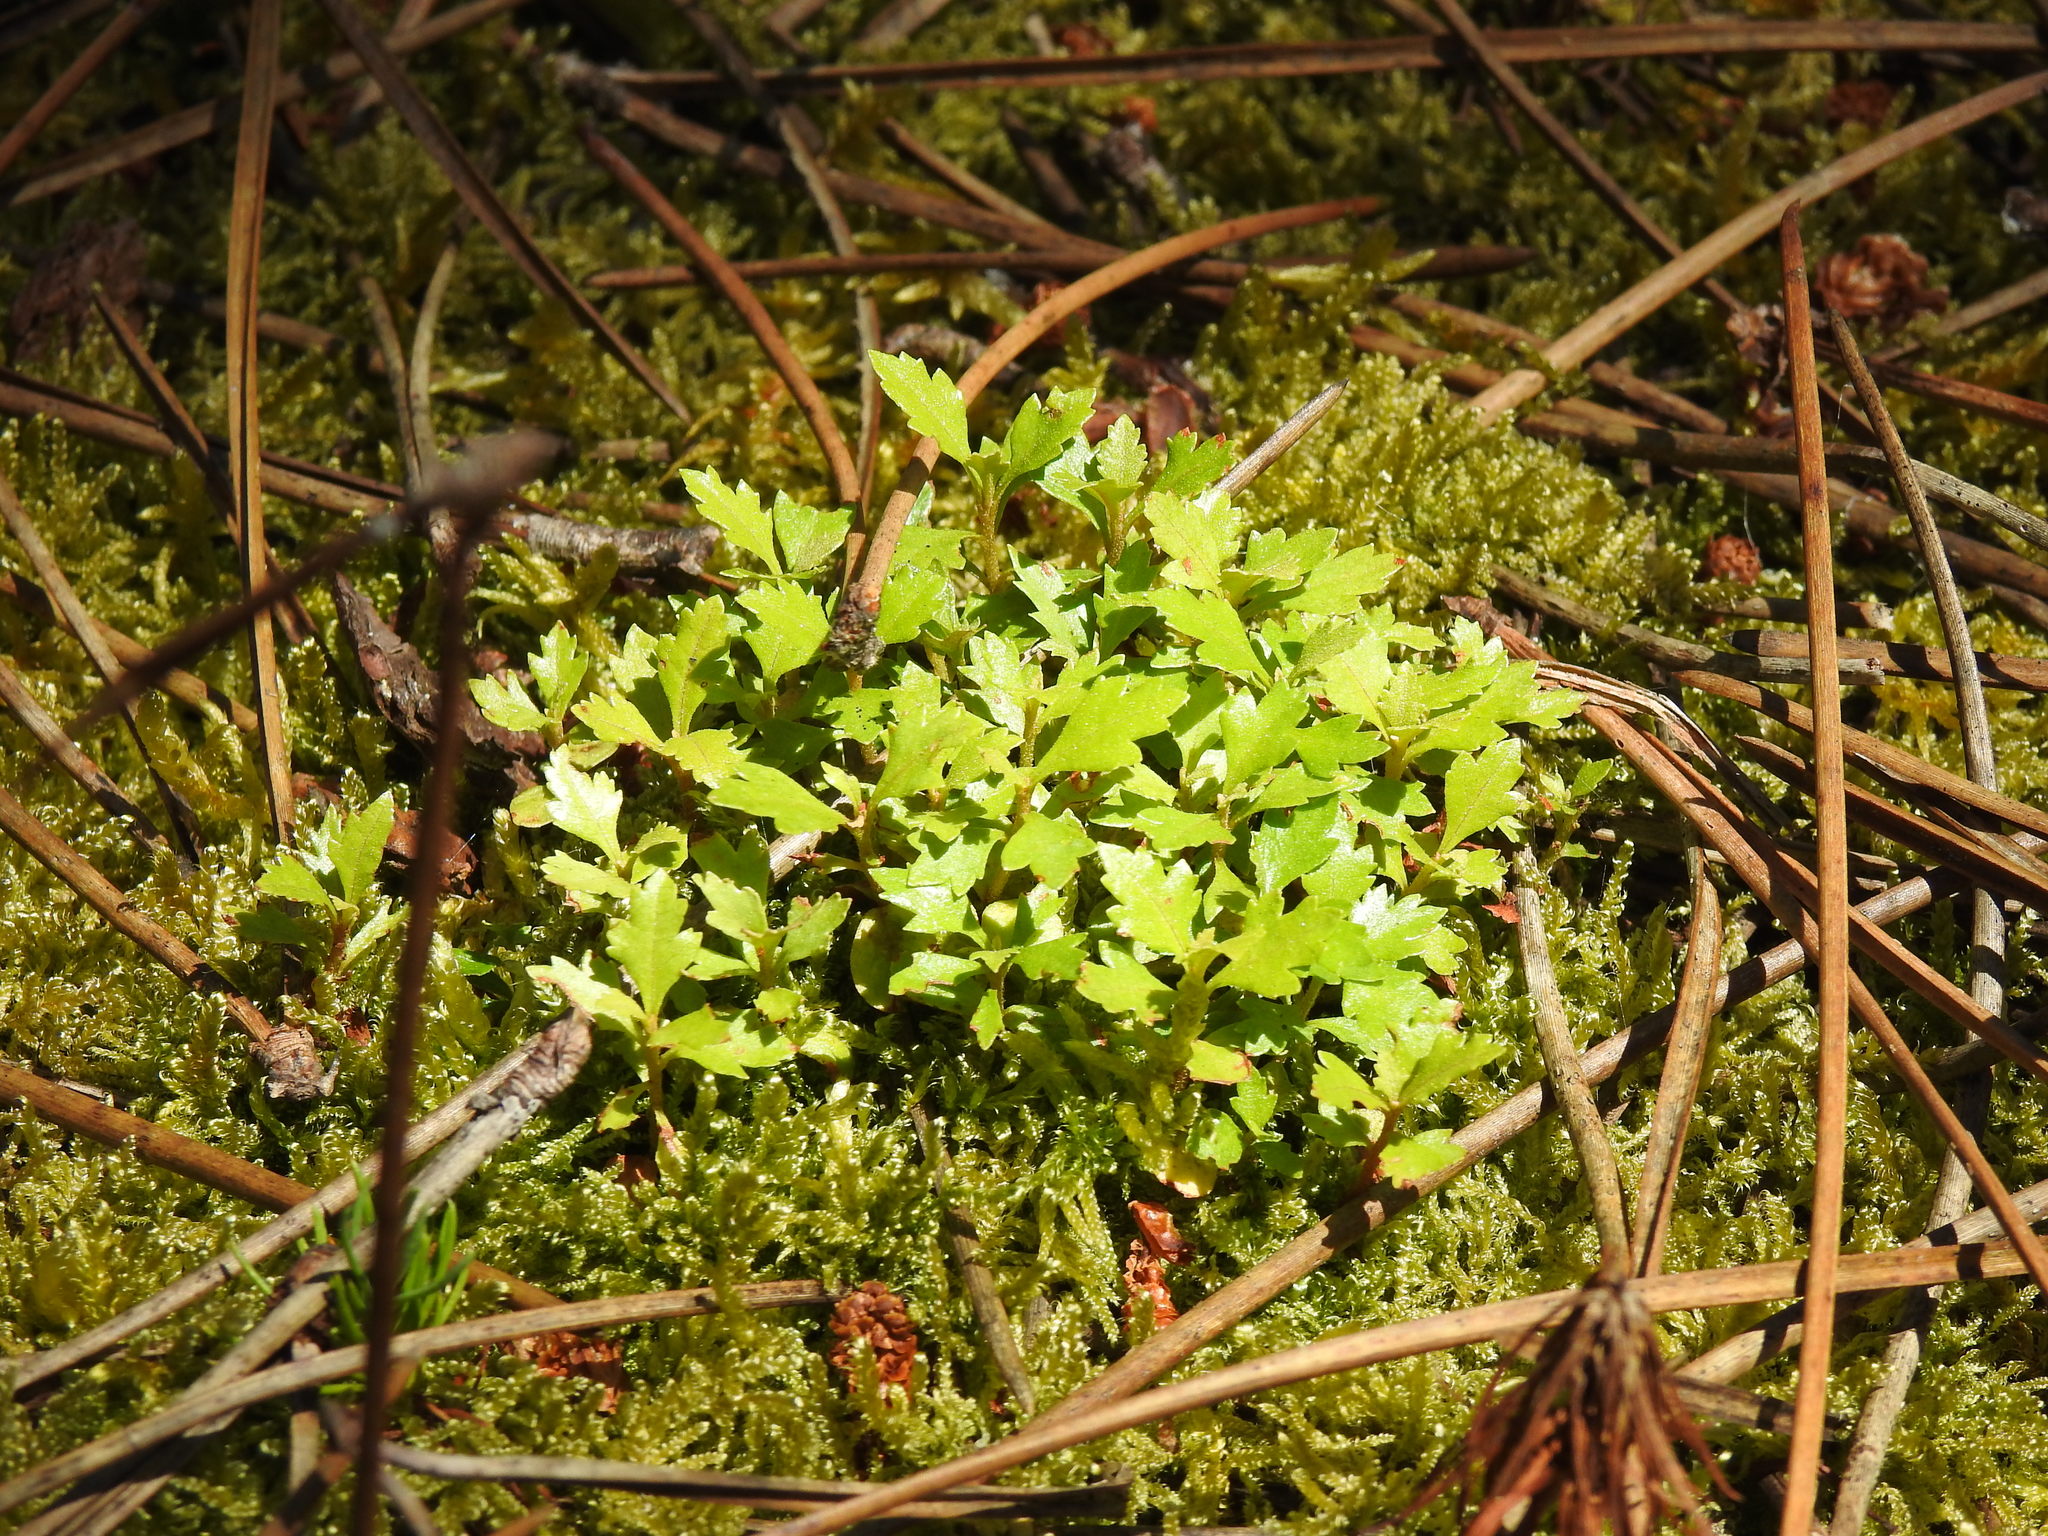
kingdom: Plantae
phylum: Tracheophyta
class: Magnoliopsida
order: Fagales
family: Myricaceae
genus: Morella
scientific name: Morella faya
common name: Firetree
